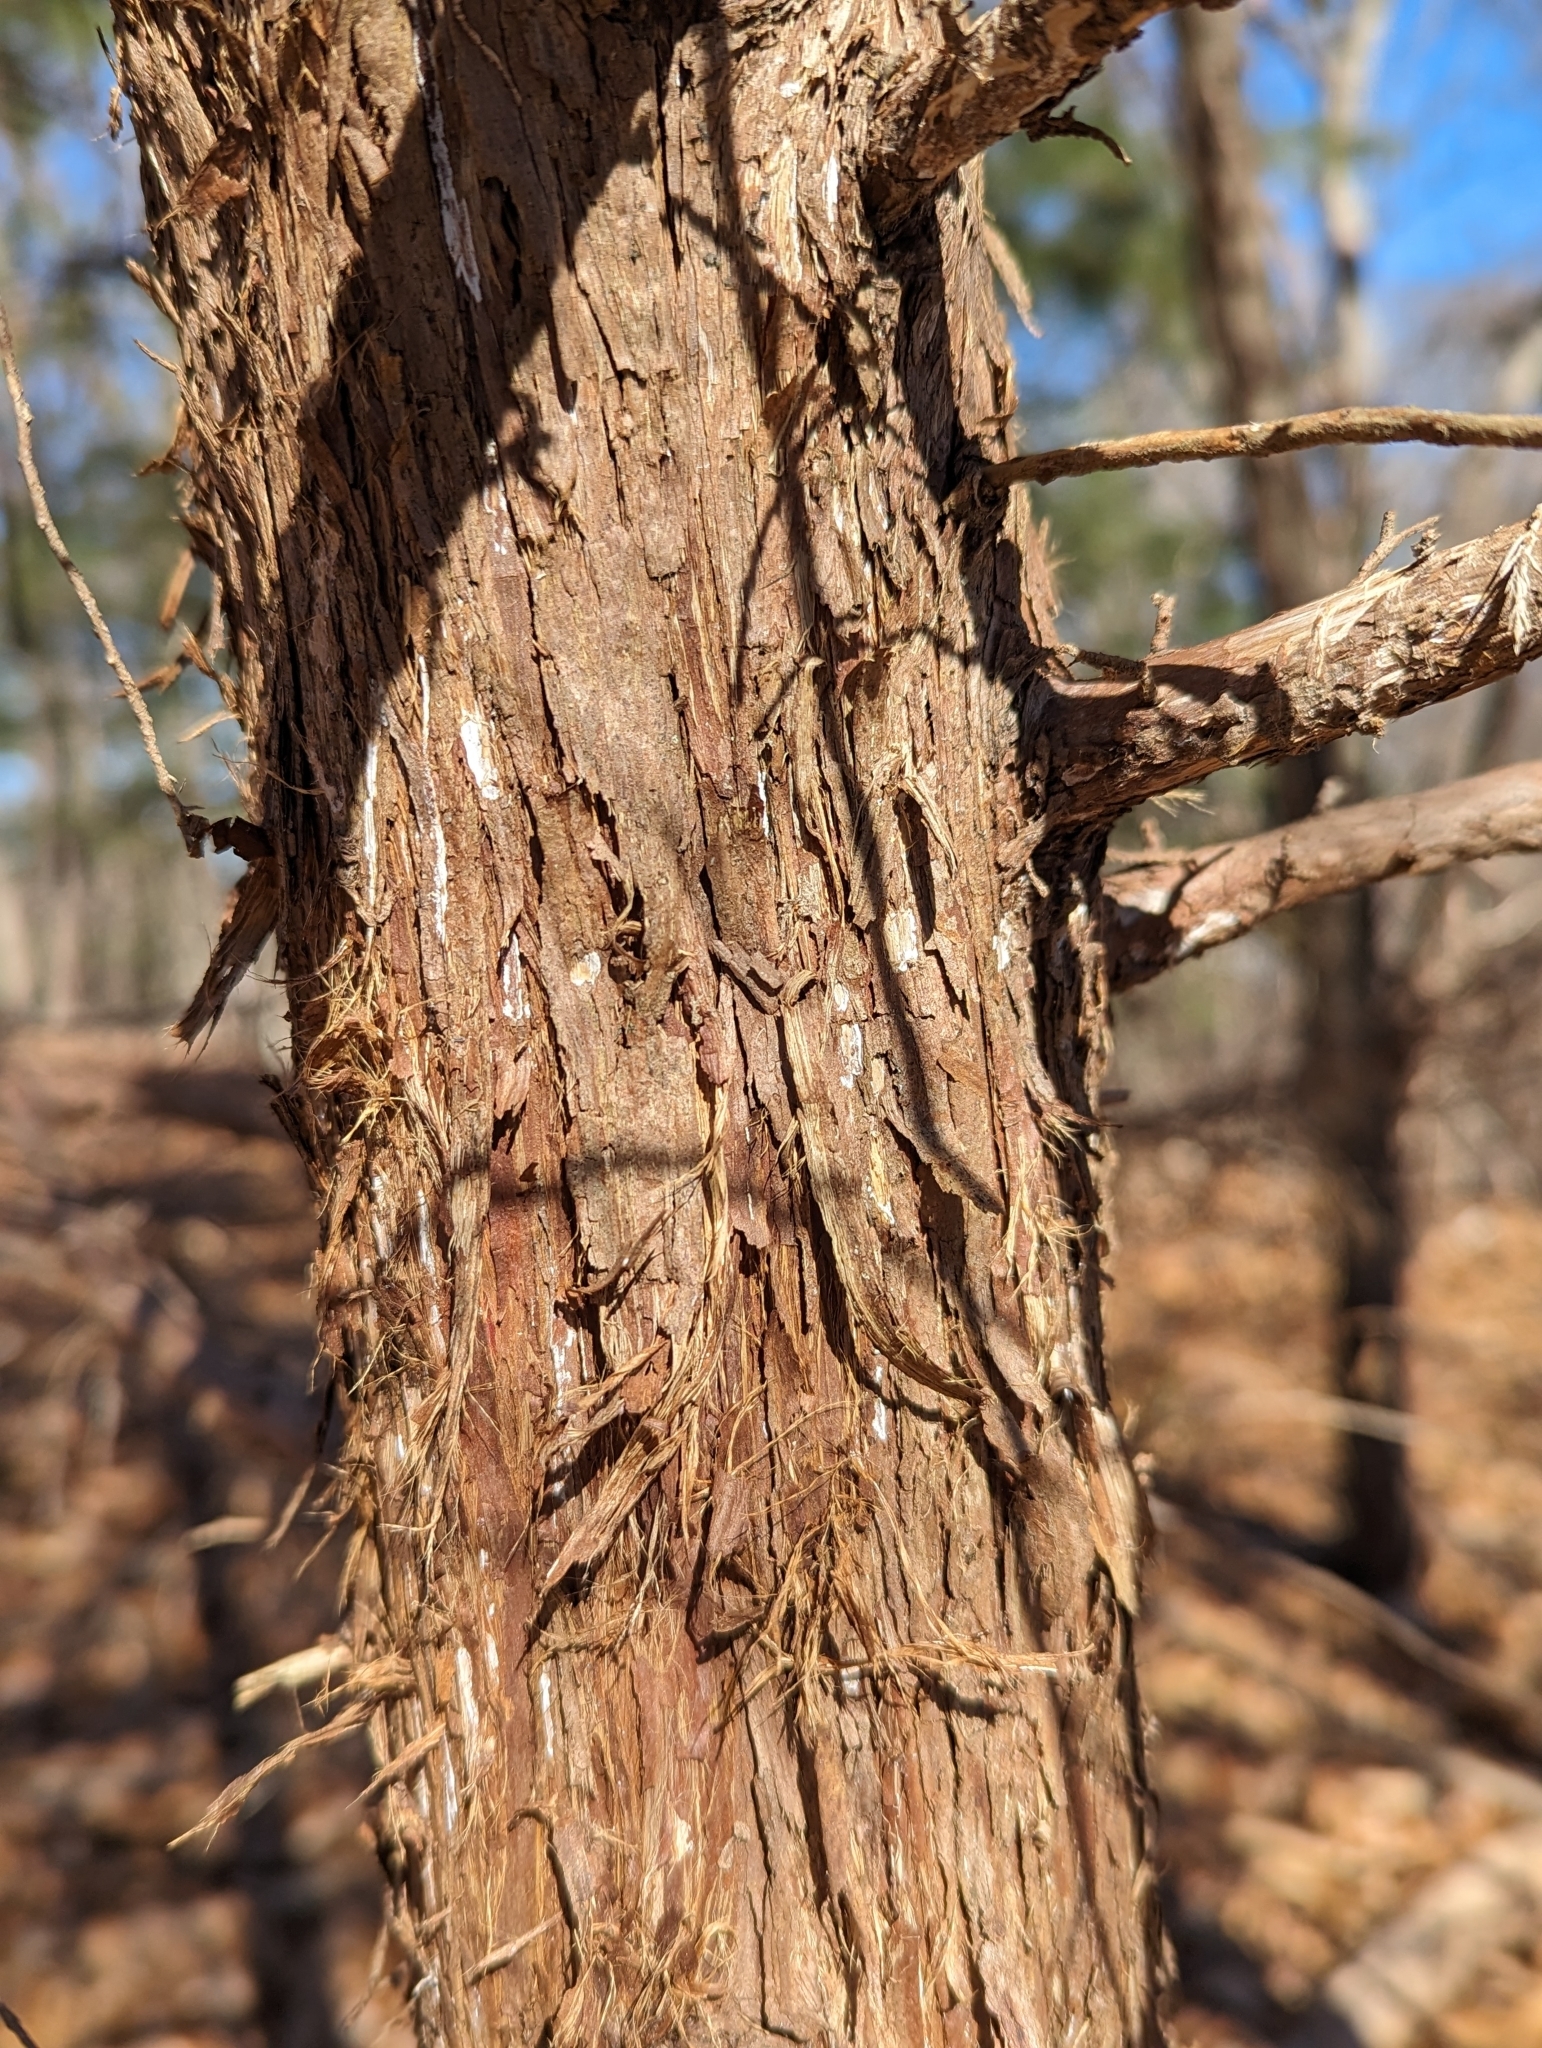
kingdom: Plantae
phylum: Tracheophyta
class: Pinopsida
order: Pinales
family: Cupressaceae
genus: Juniperus
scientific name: Juniperus virginiana
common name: Red juniper
